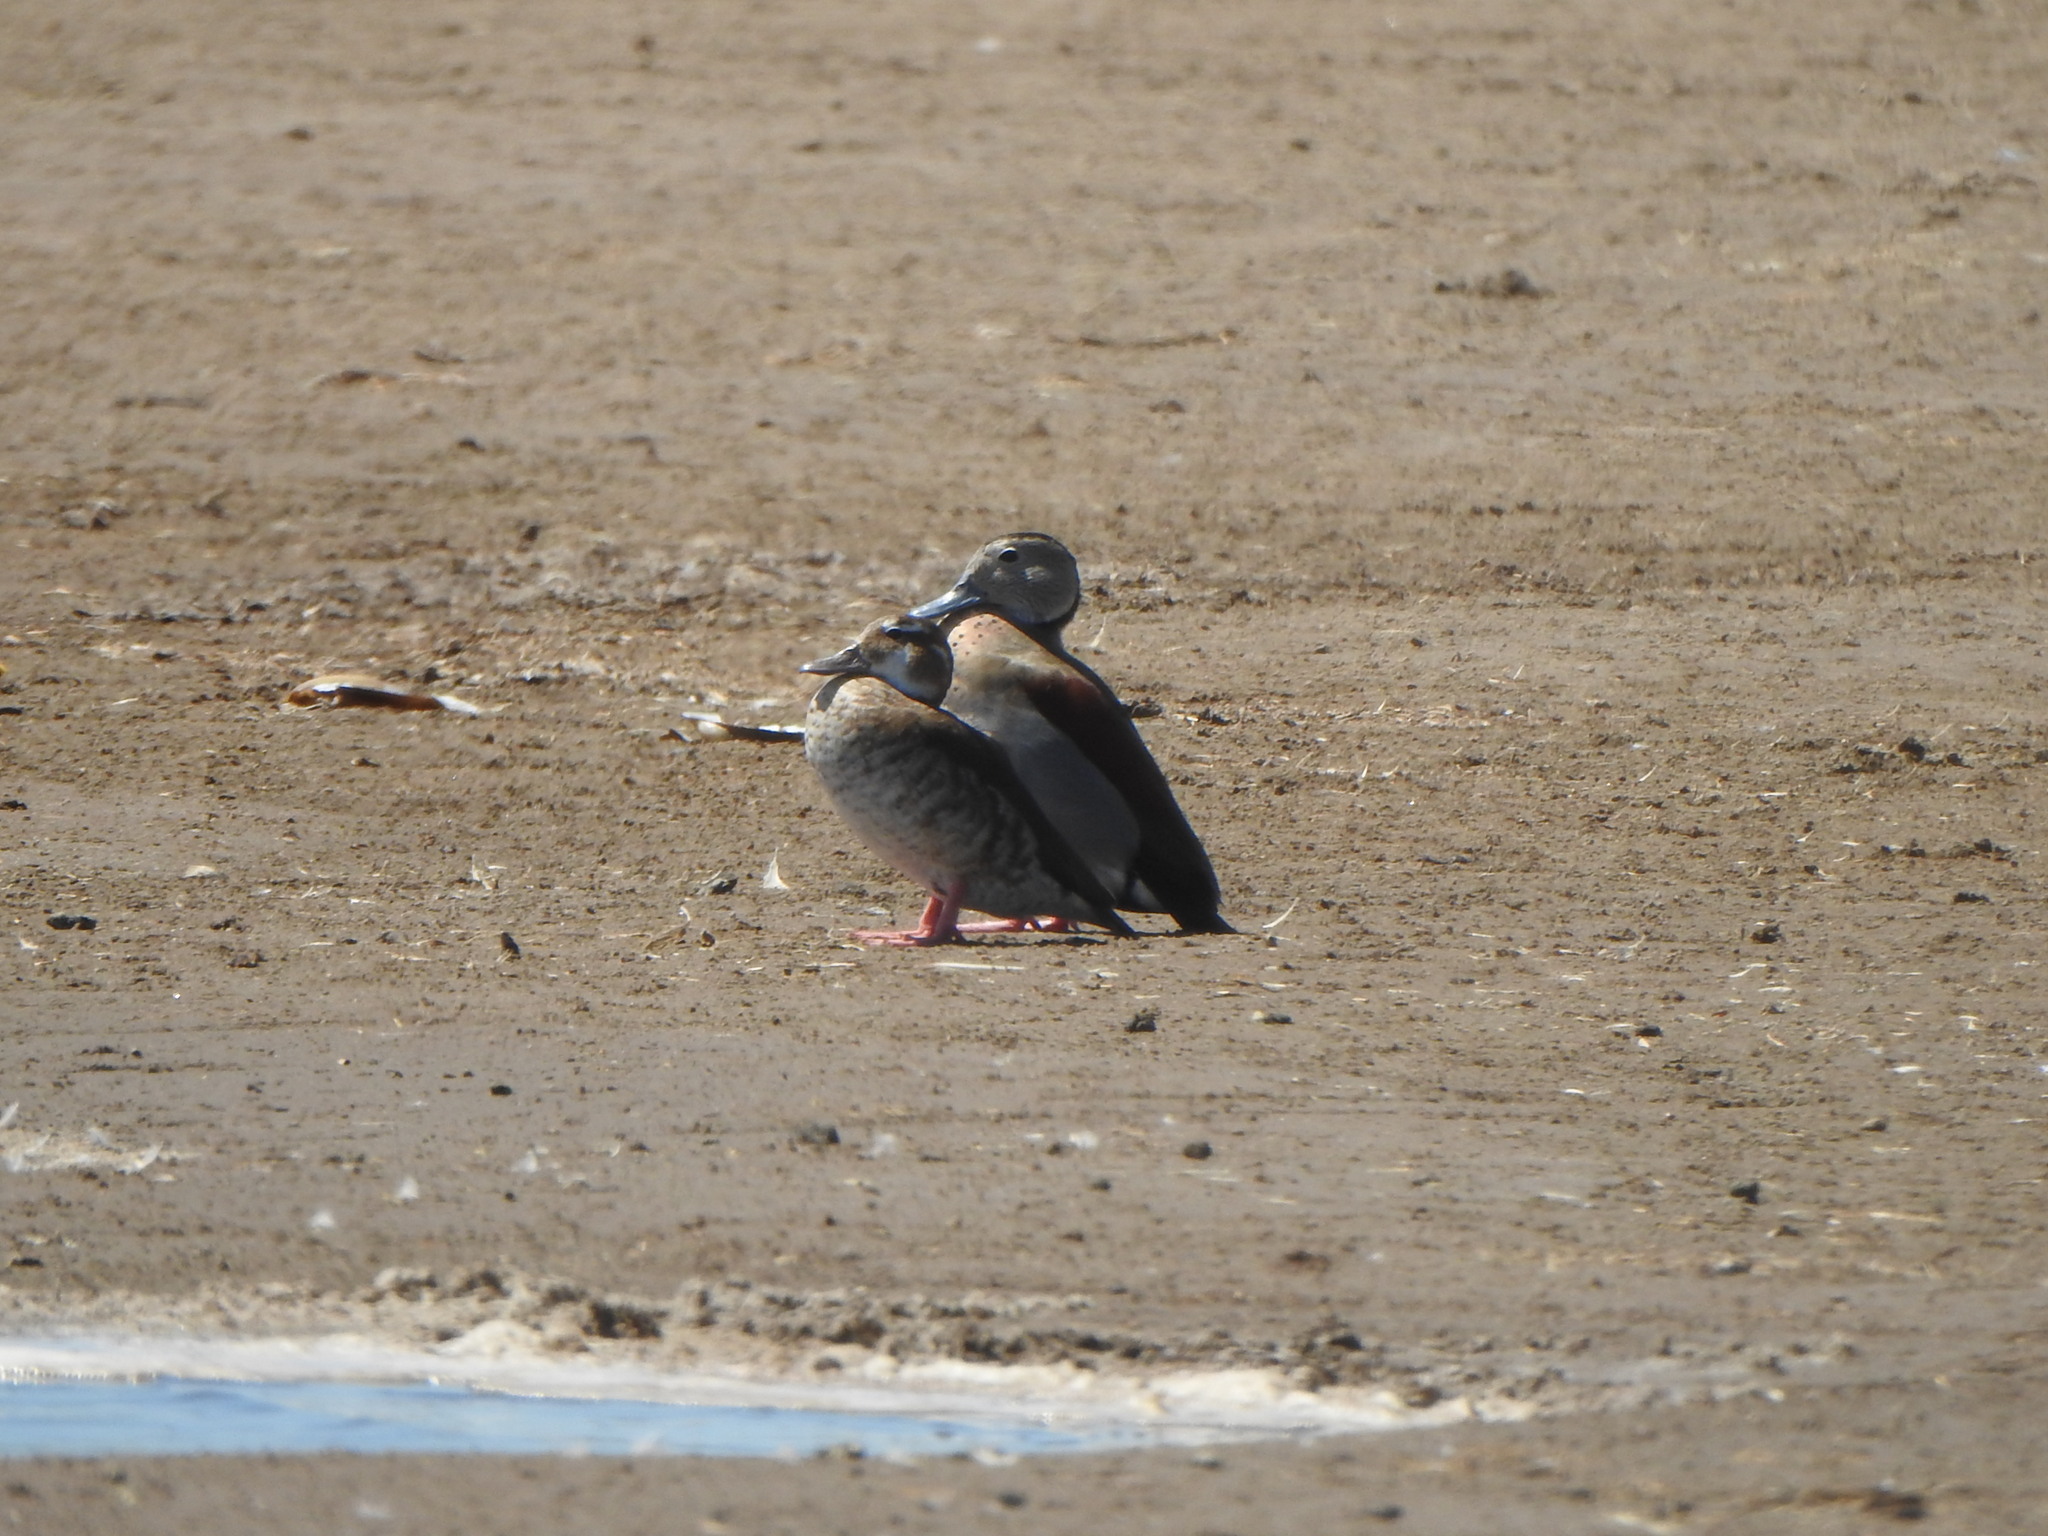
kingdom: Animalia
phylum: Chordata
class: Aves
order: Anseriformes
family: Anatidae
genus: Callonetta
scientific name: Callonetta leucophrys
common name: Ringed teal
